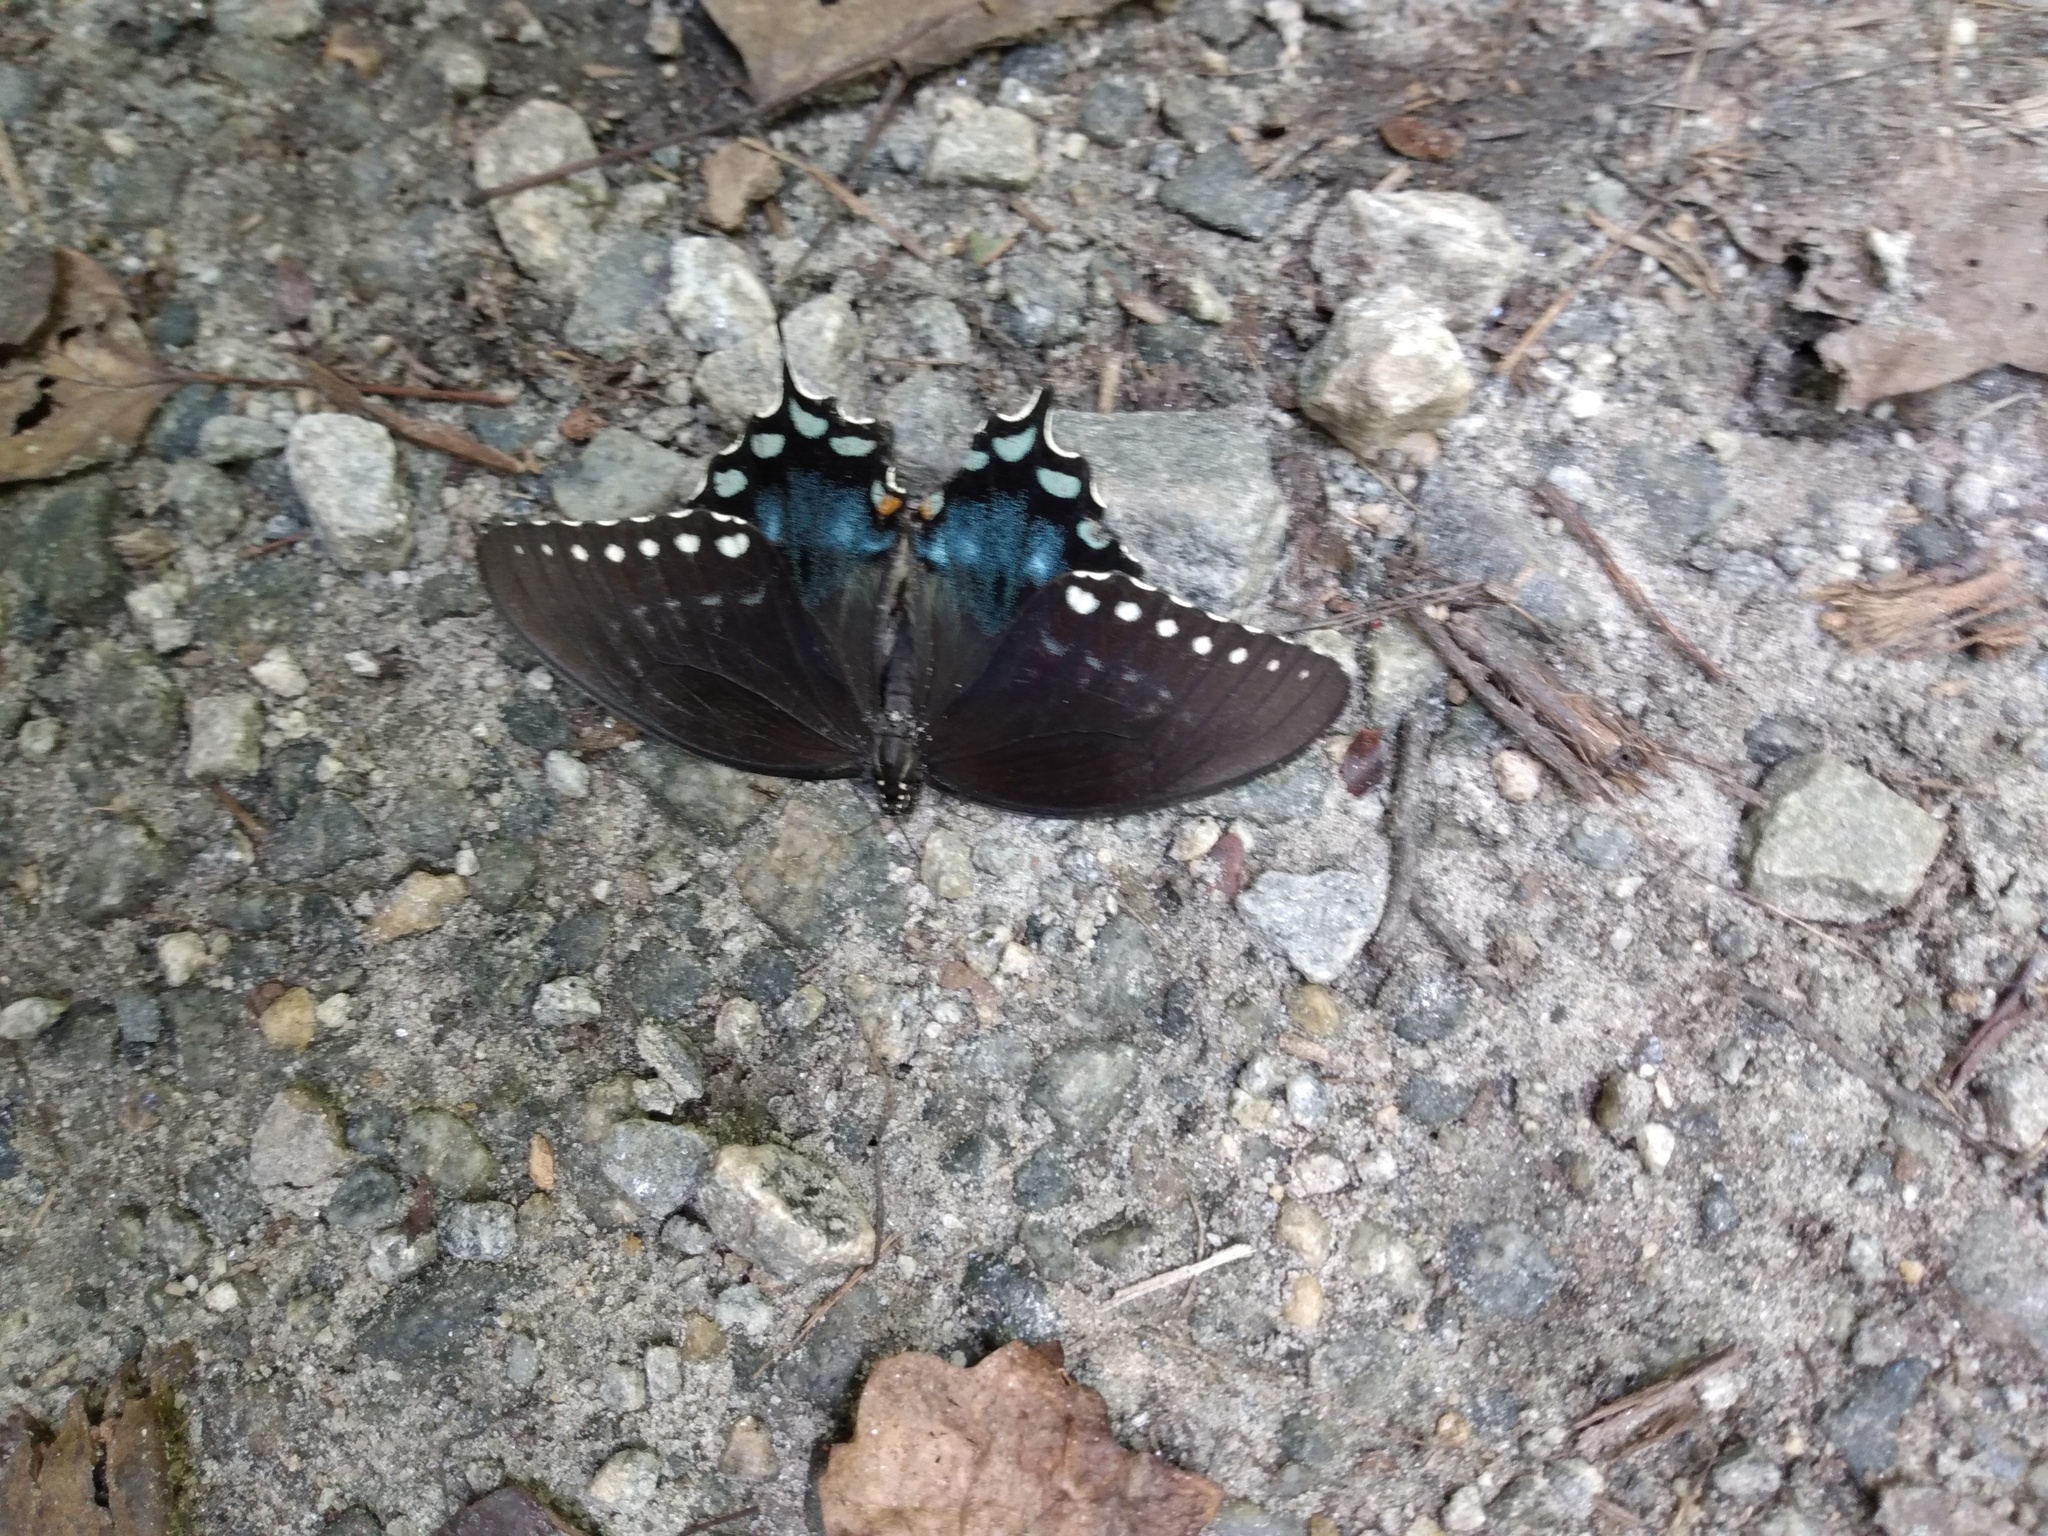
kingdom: Animalia
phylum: Arthropoda
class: Insecta
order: Lepidoptera
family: Papilionidae
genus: Papilio
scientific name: Papilio troilus
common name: Spicebush swallowtail
